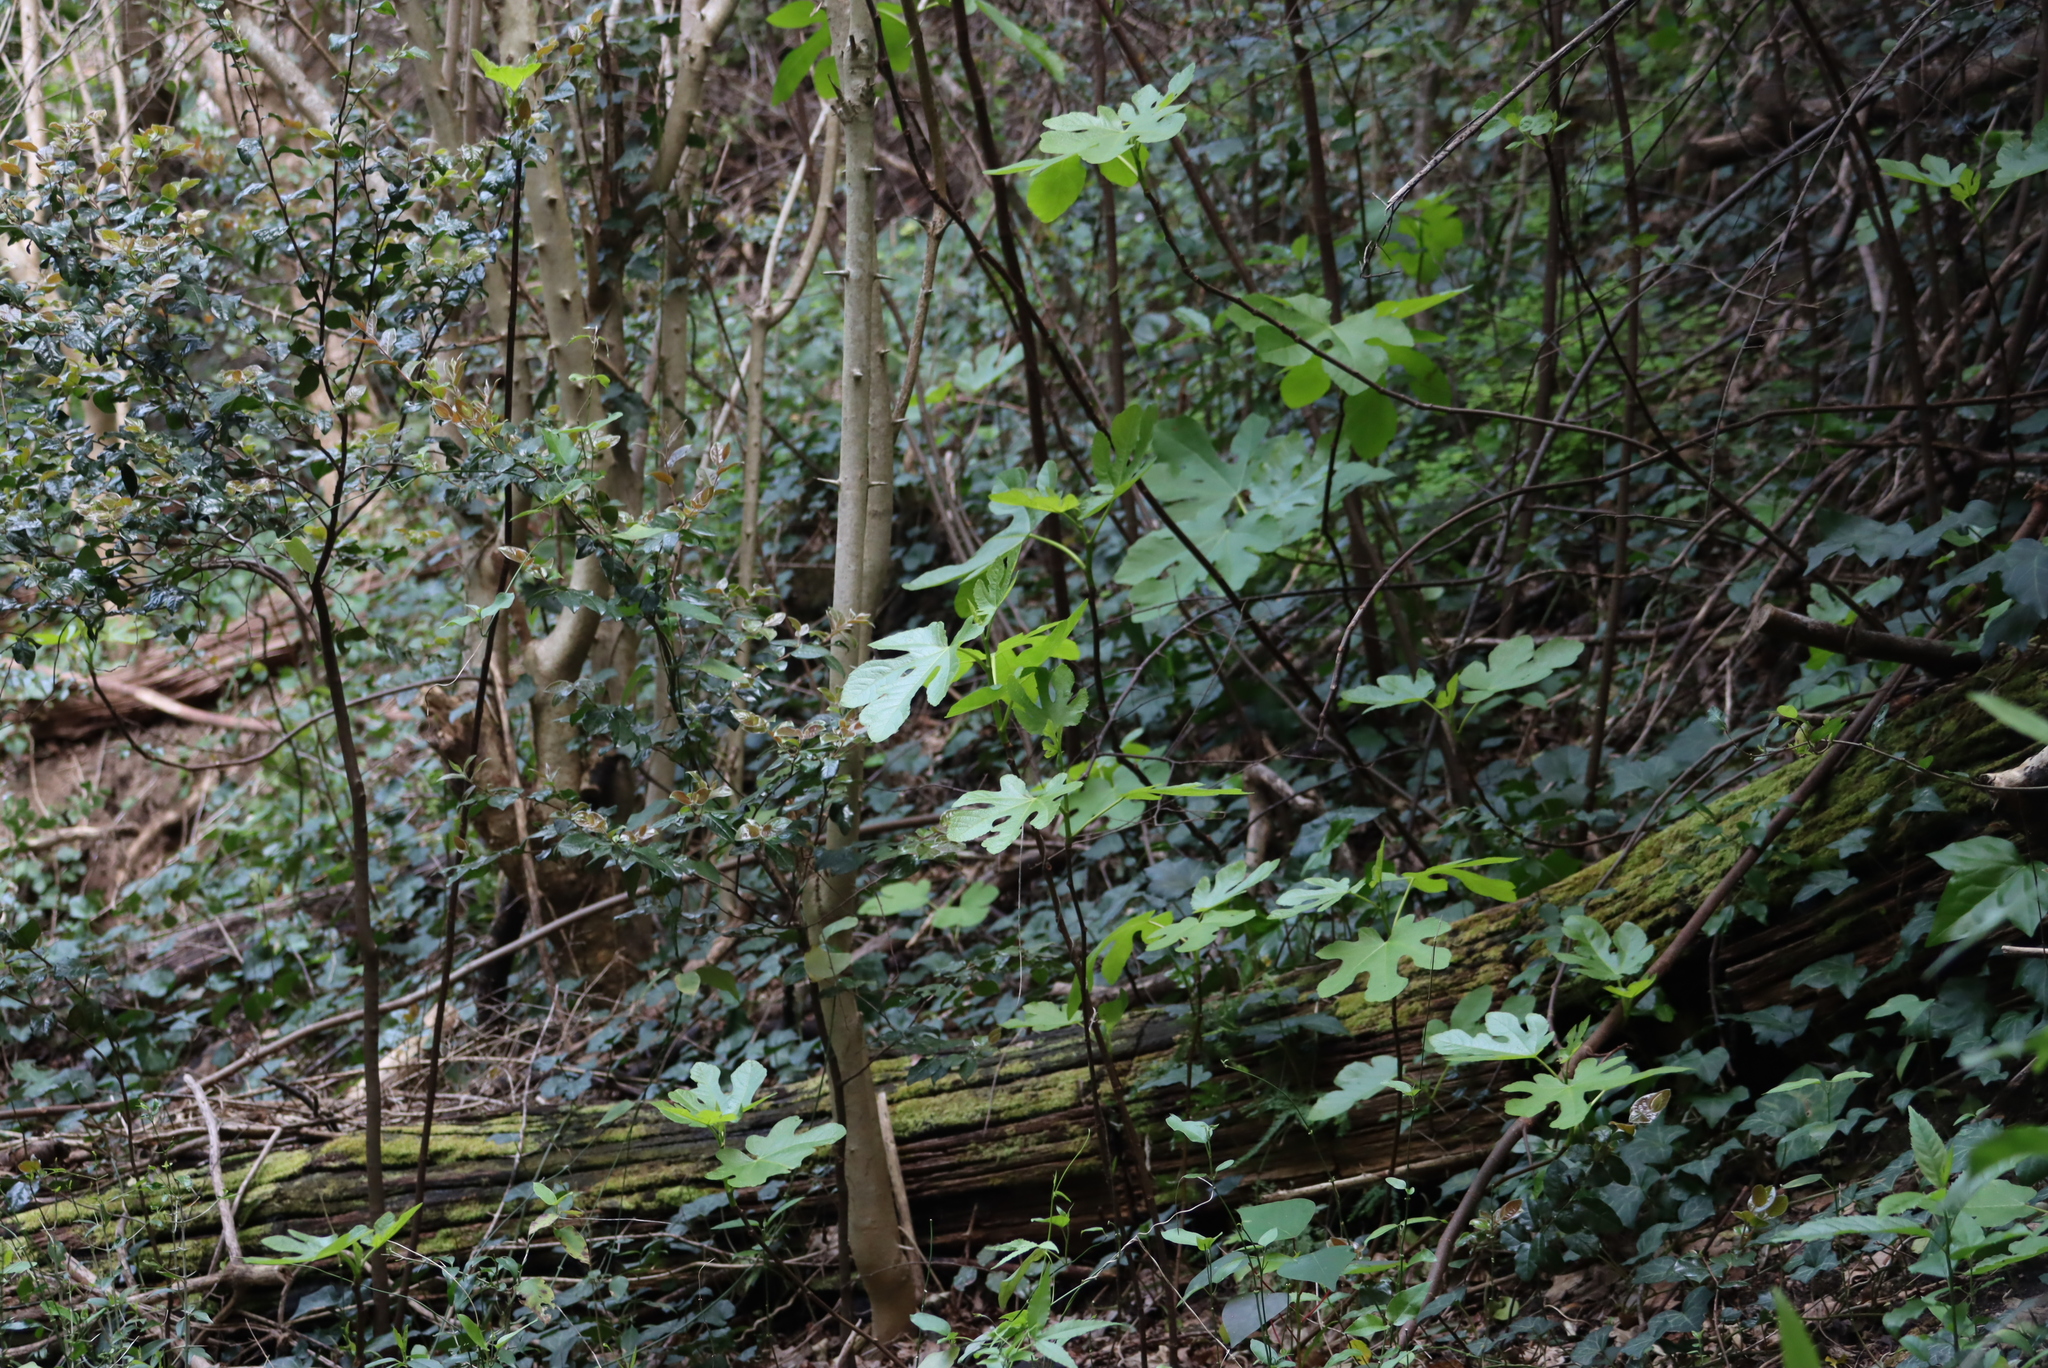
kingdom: Plantae
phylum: Tracheophyta
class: Magnoliopsida
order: Rosales
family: Moraceae
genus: Ficus
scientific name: Ficus carica
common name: Fig
